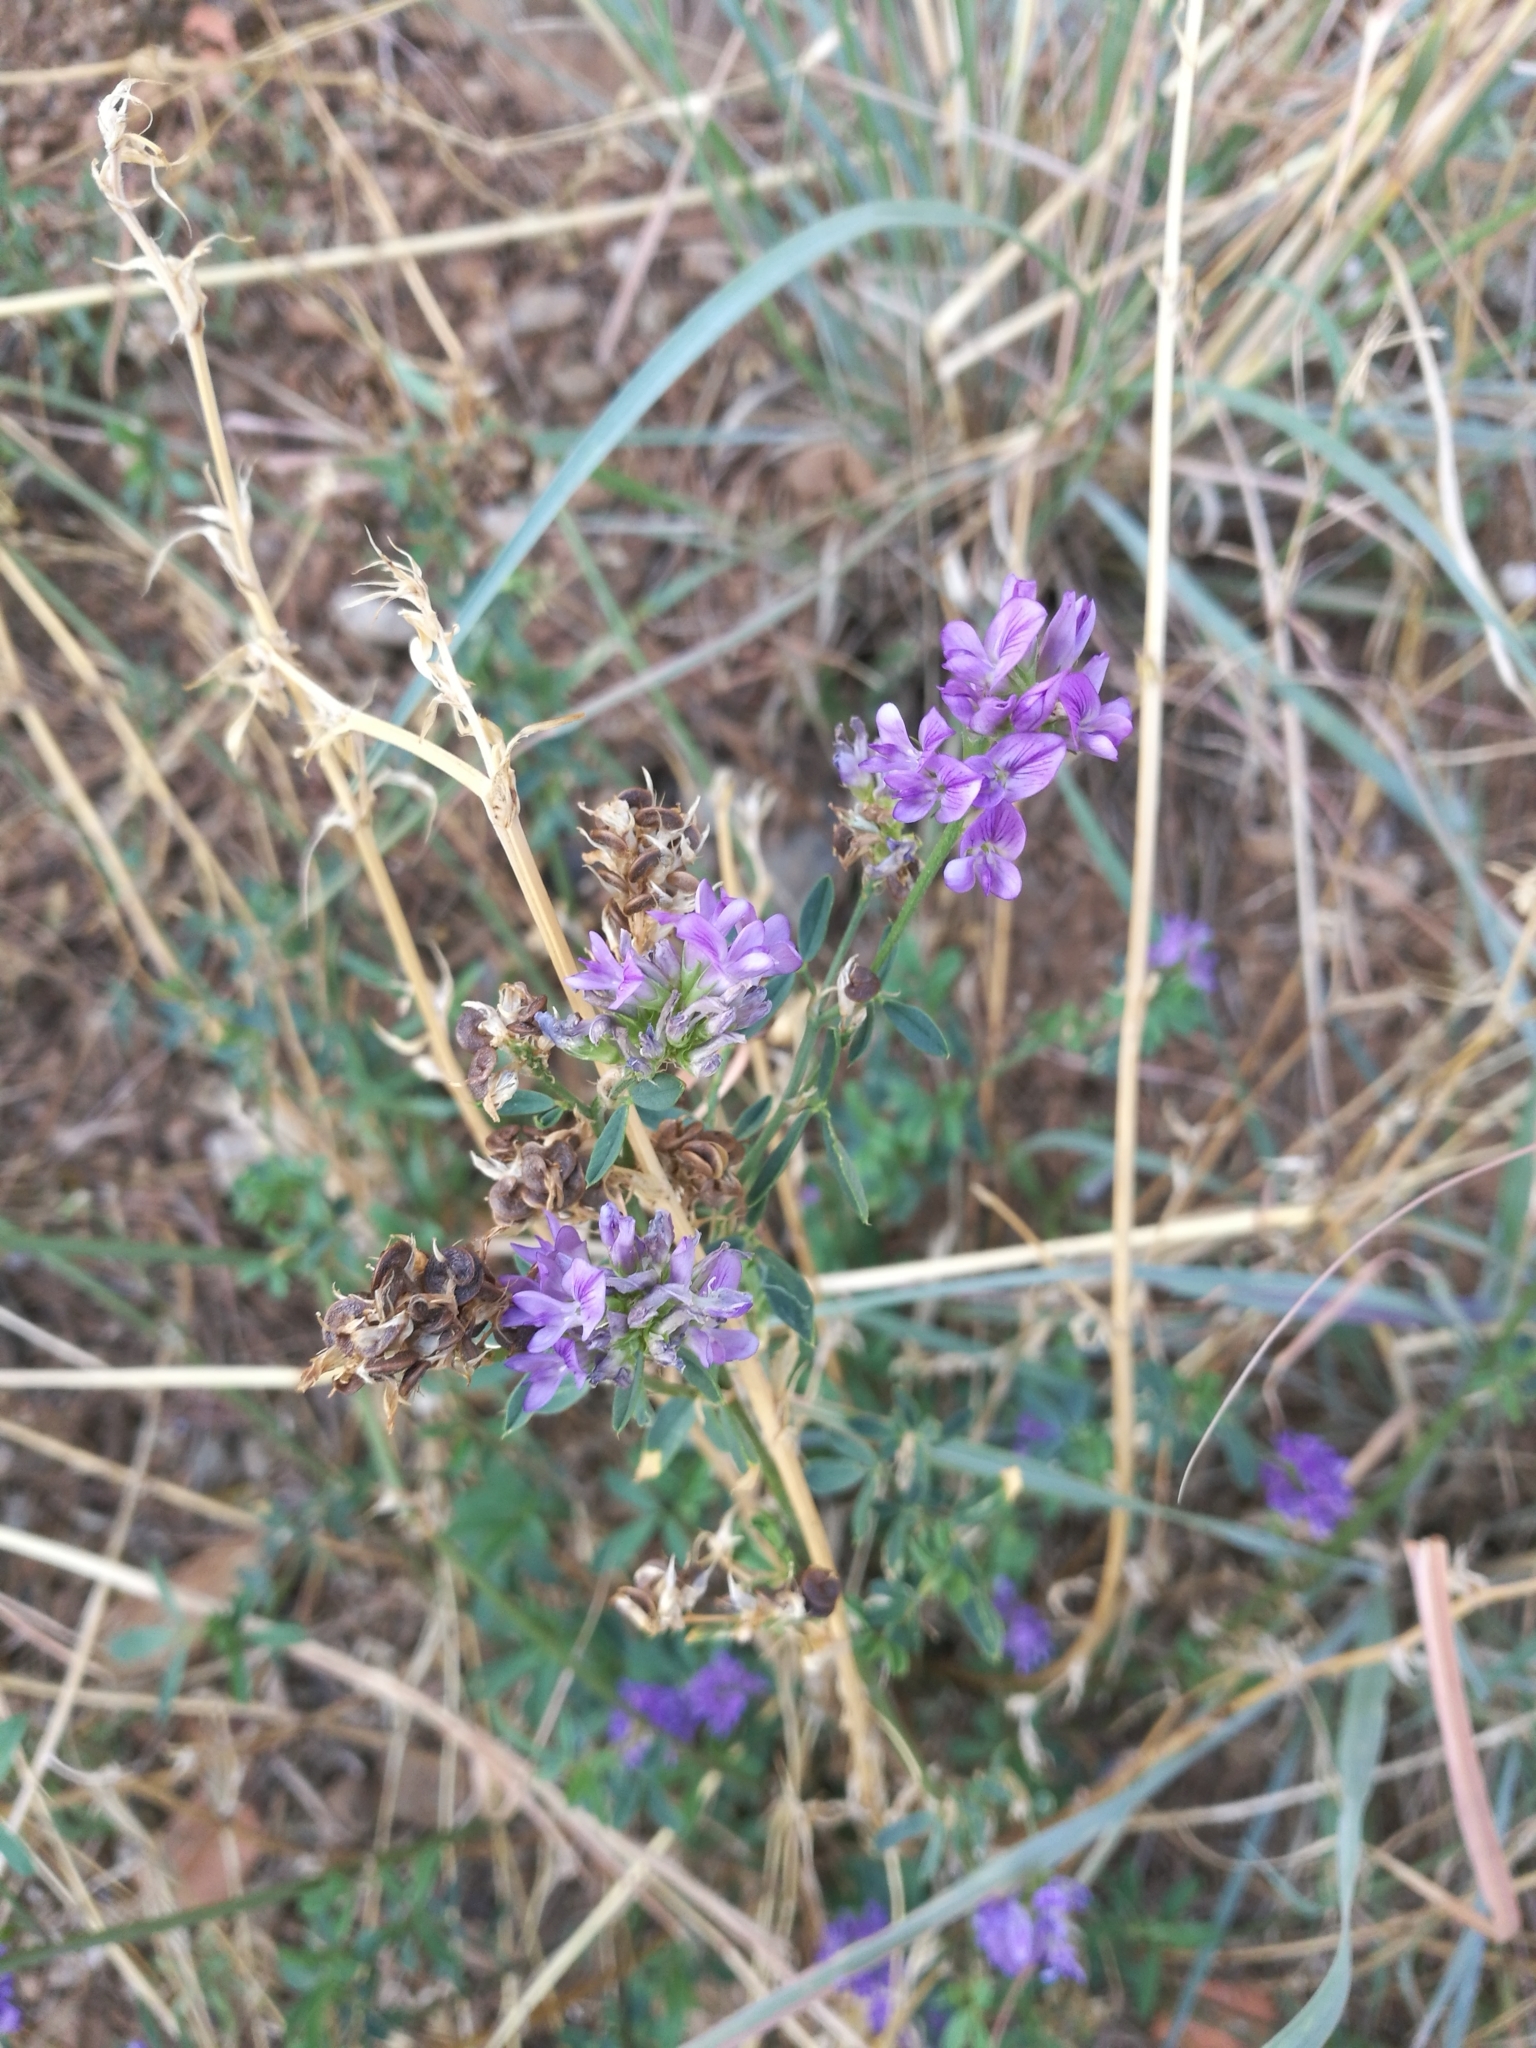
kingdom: Plantae
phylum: Tracheophyta
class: Magnoliopsida
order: Fabales
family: Fabaceae
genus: Medicago
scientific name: Medicago sativa
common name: Alfalfa
